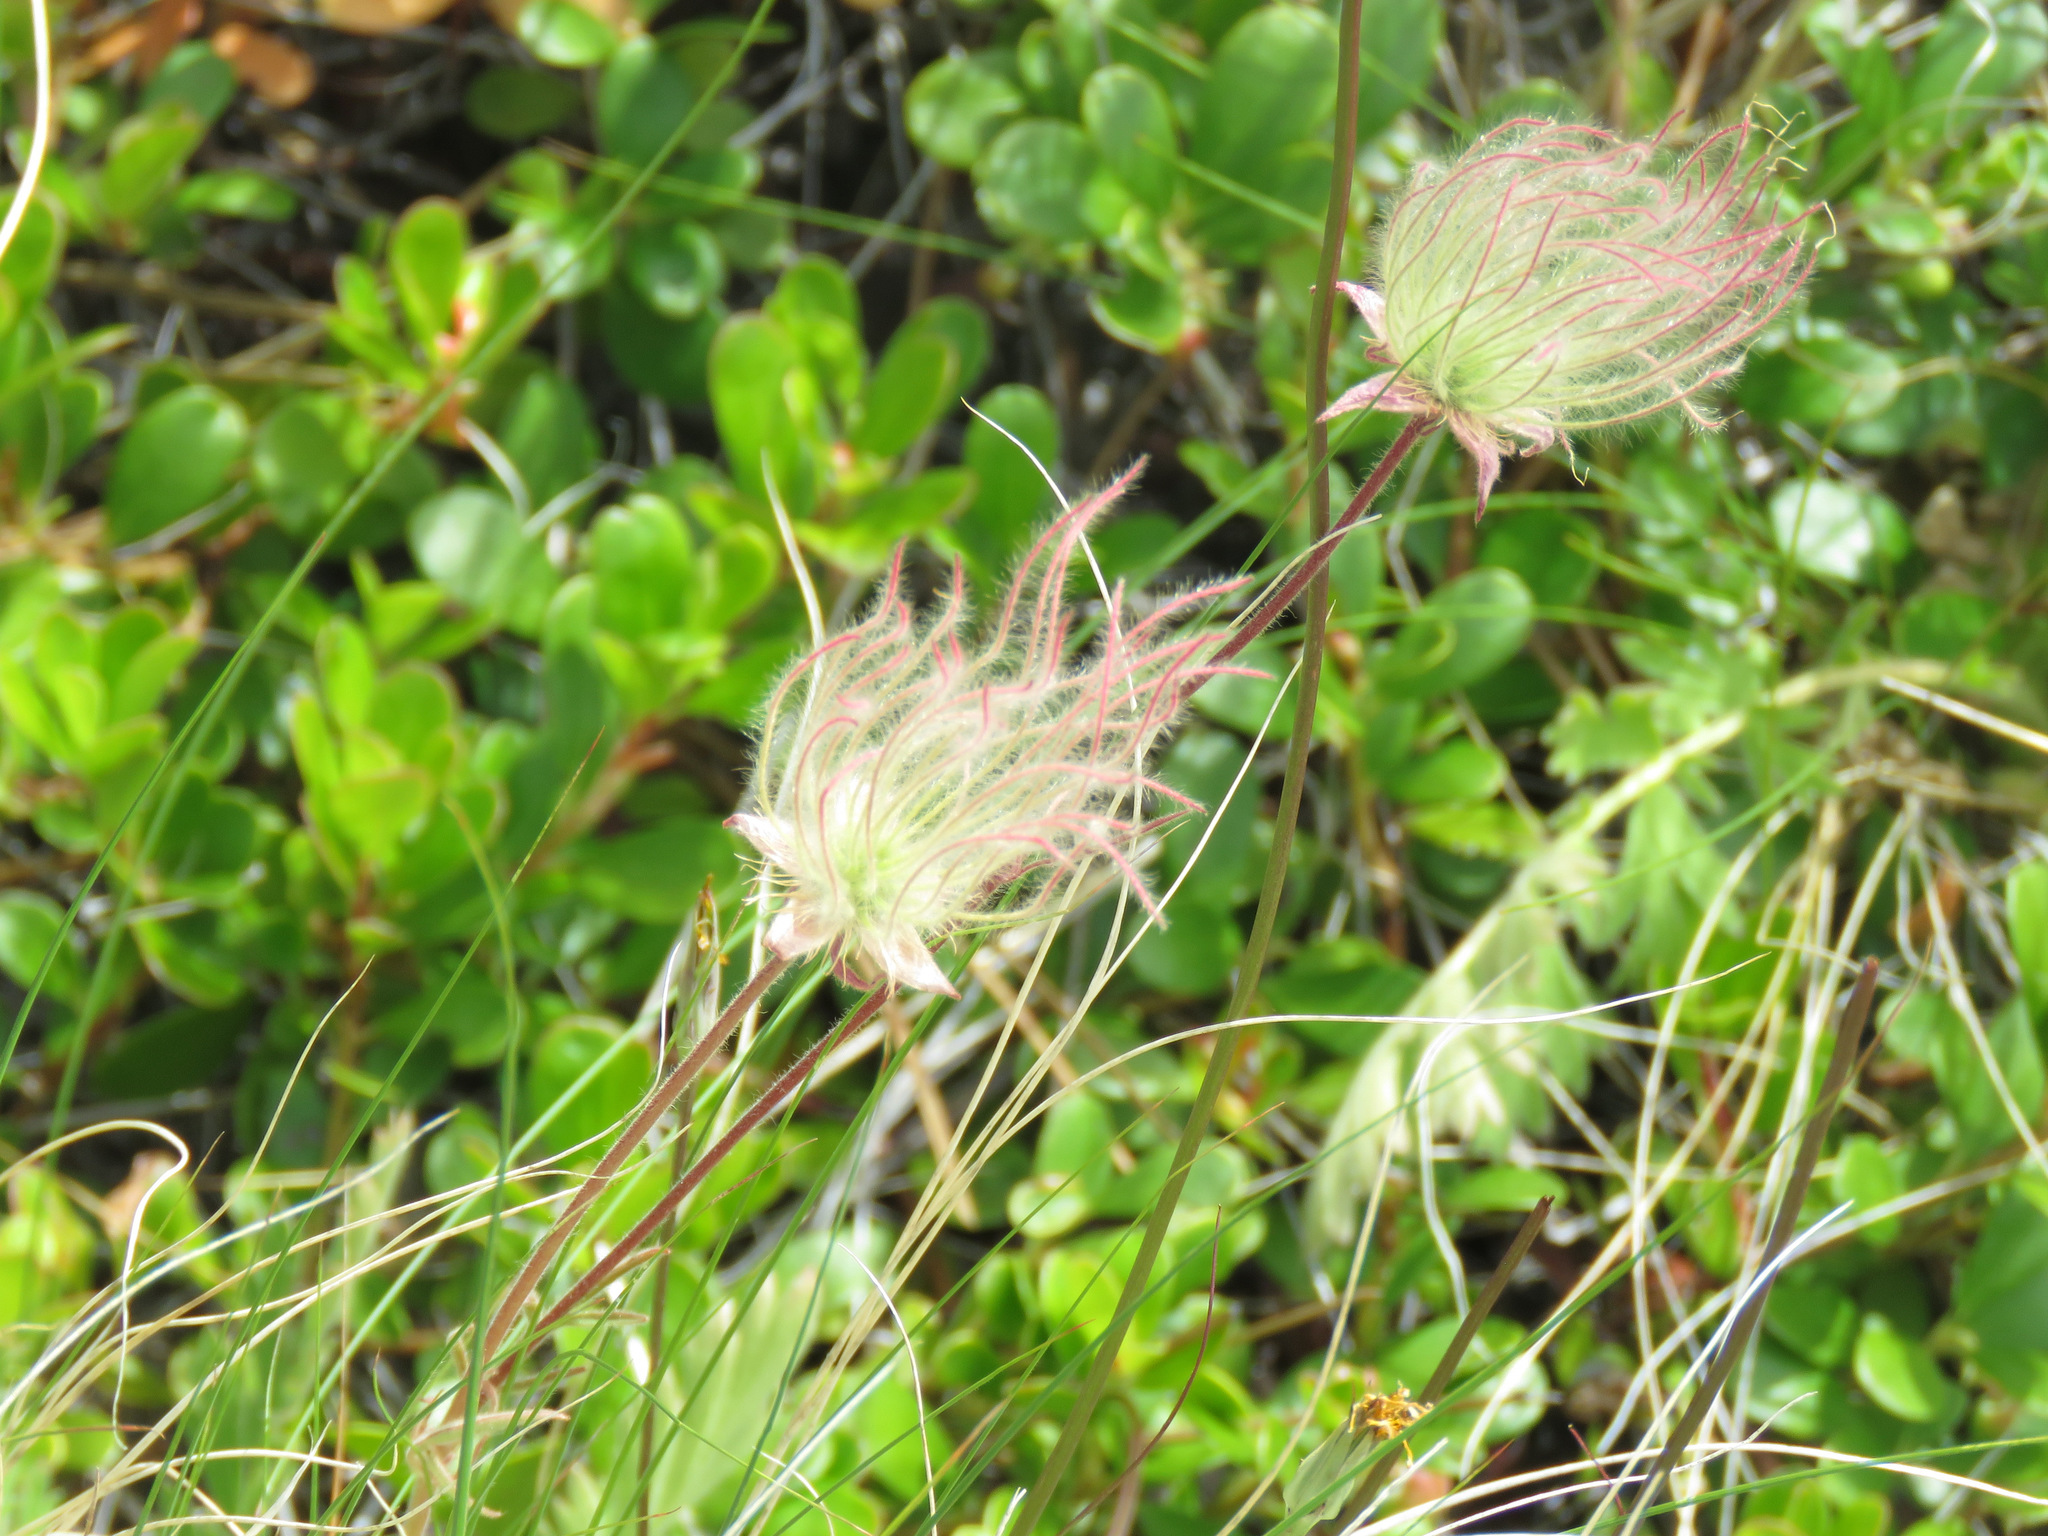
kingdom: Plantae
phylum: Tracheophyta
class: Magnoliopsida
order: Rosales
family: Rosaceae
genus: Geum
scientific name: Geum triflorum
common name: Old man's whiskers
